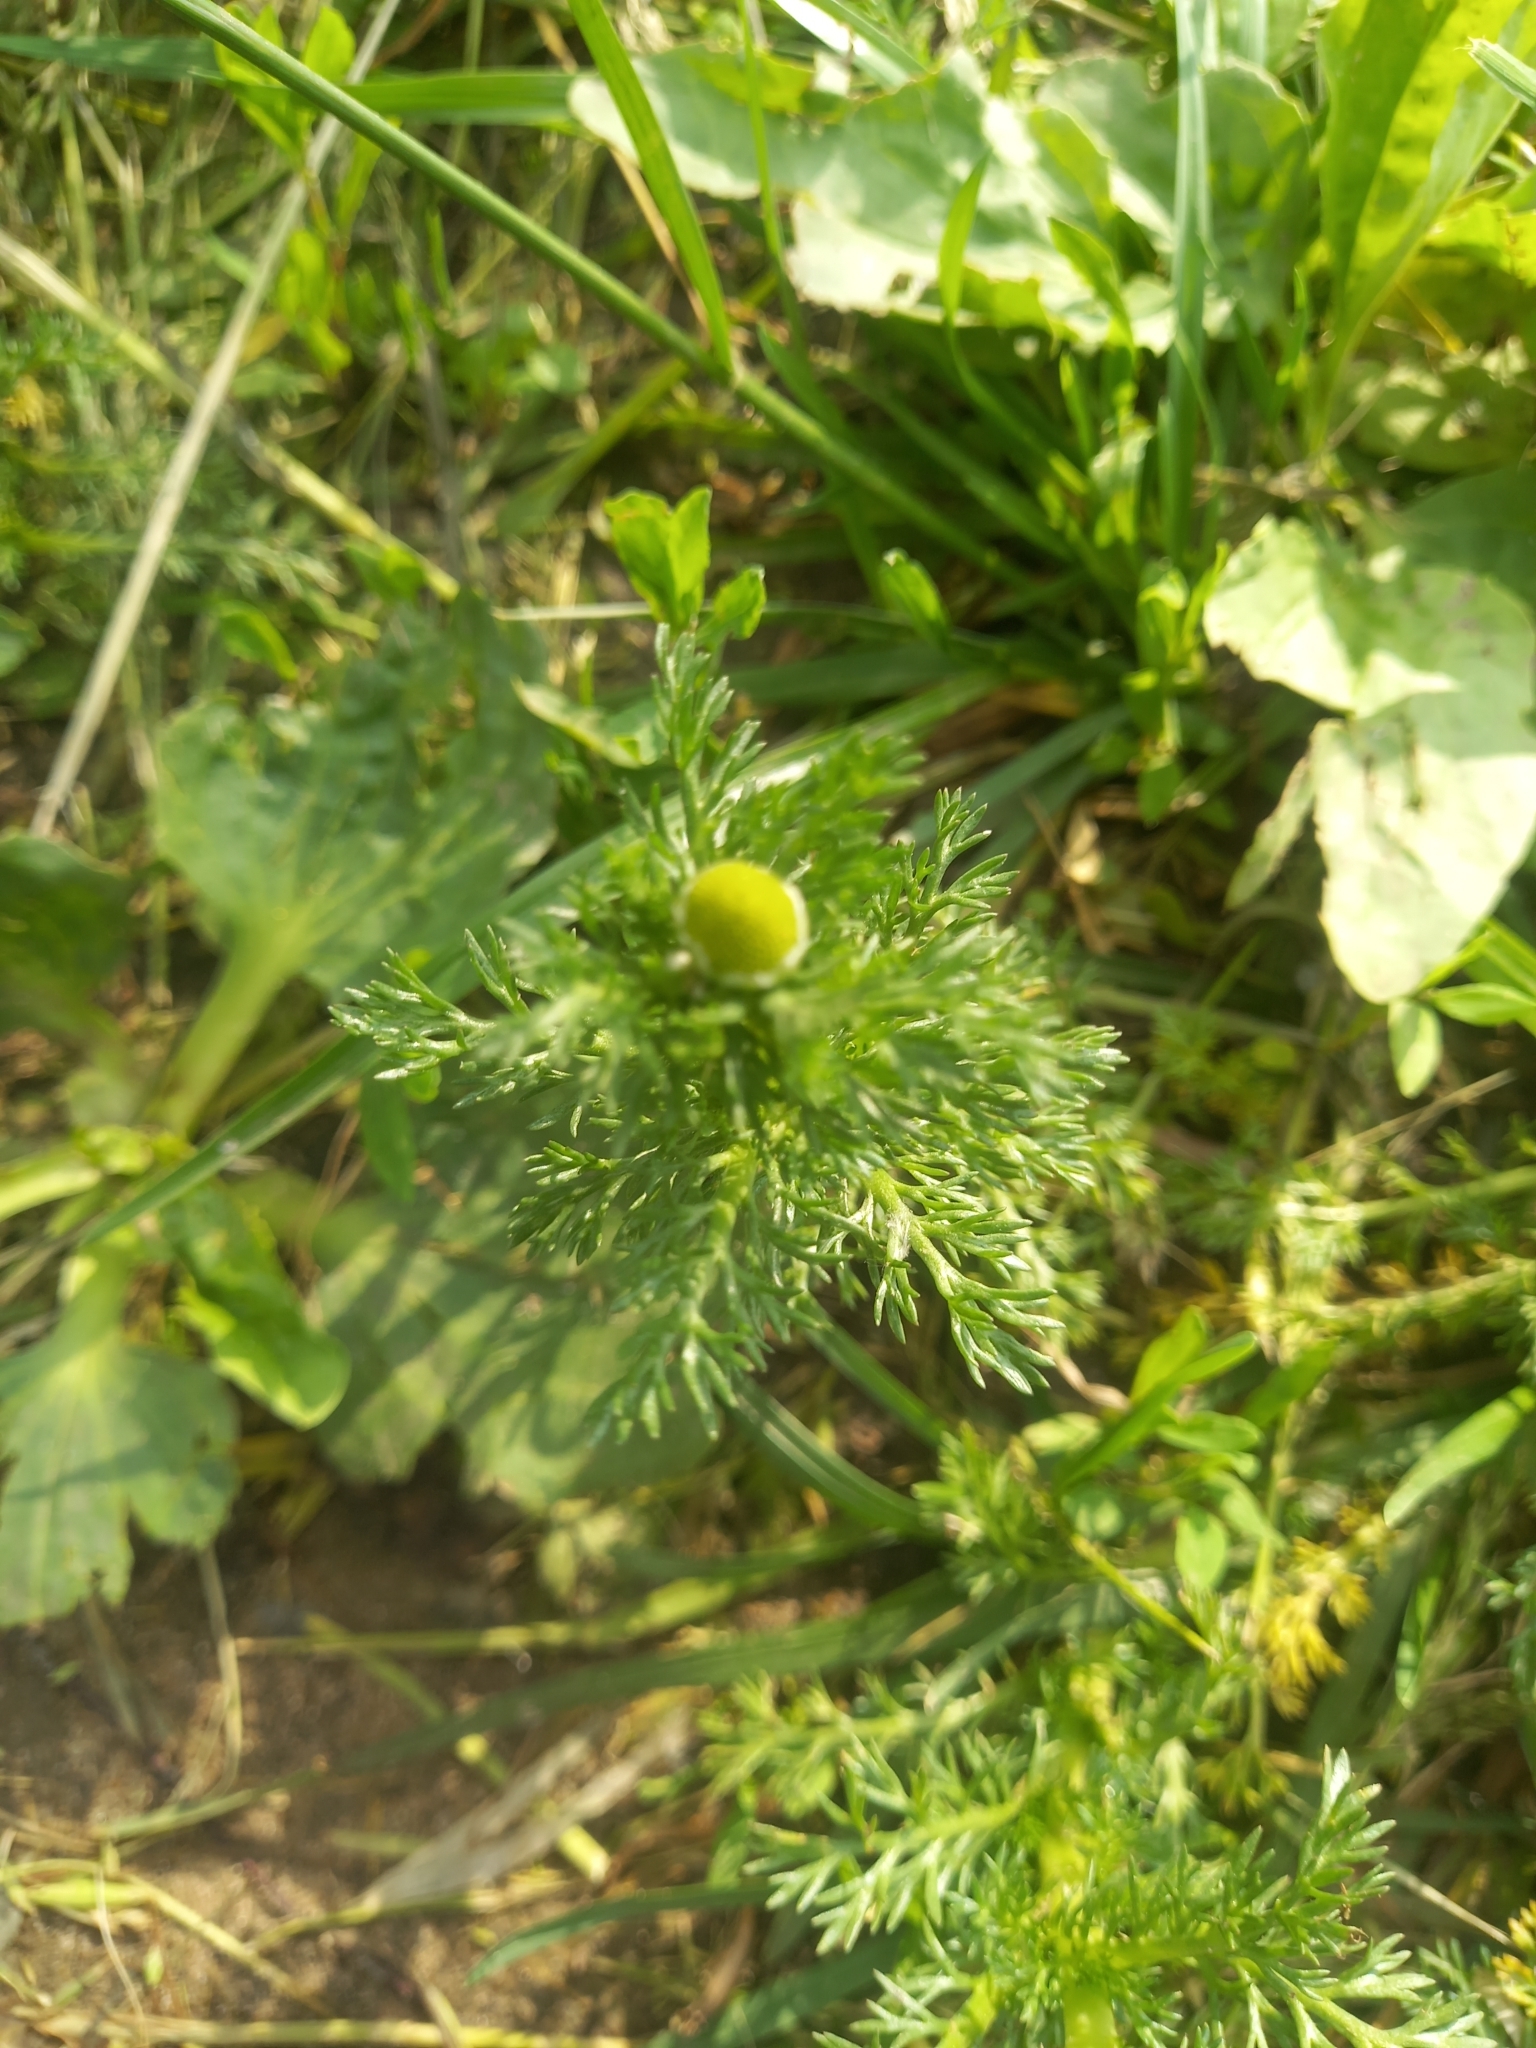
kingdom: Plantae
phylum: Tracheophyta
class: Magnoliopsida
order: Asterales
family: Asteraceae
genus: Matricaria
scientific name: Matricaria discoidea
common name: Disc mayweed
